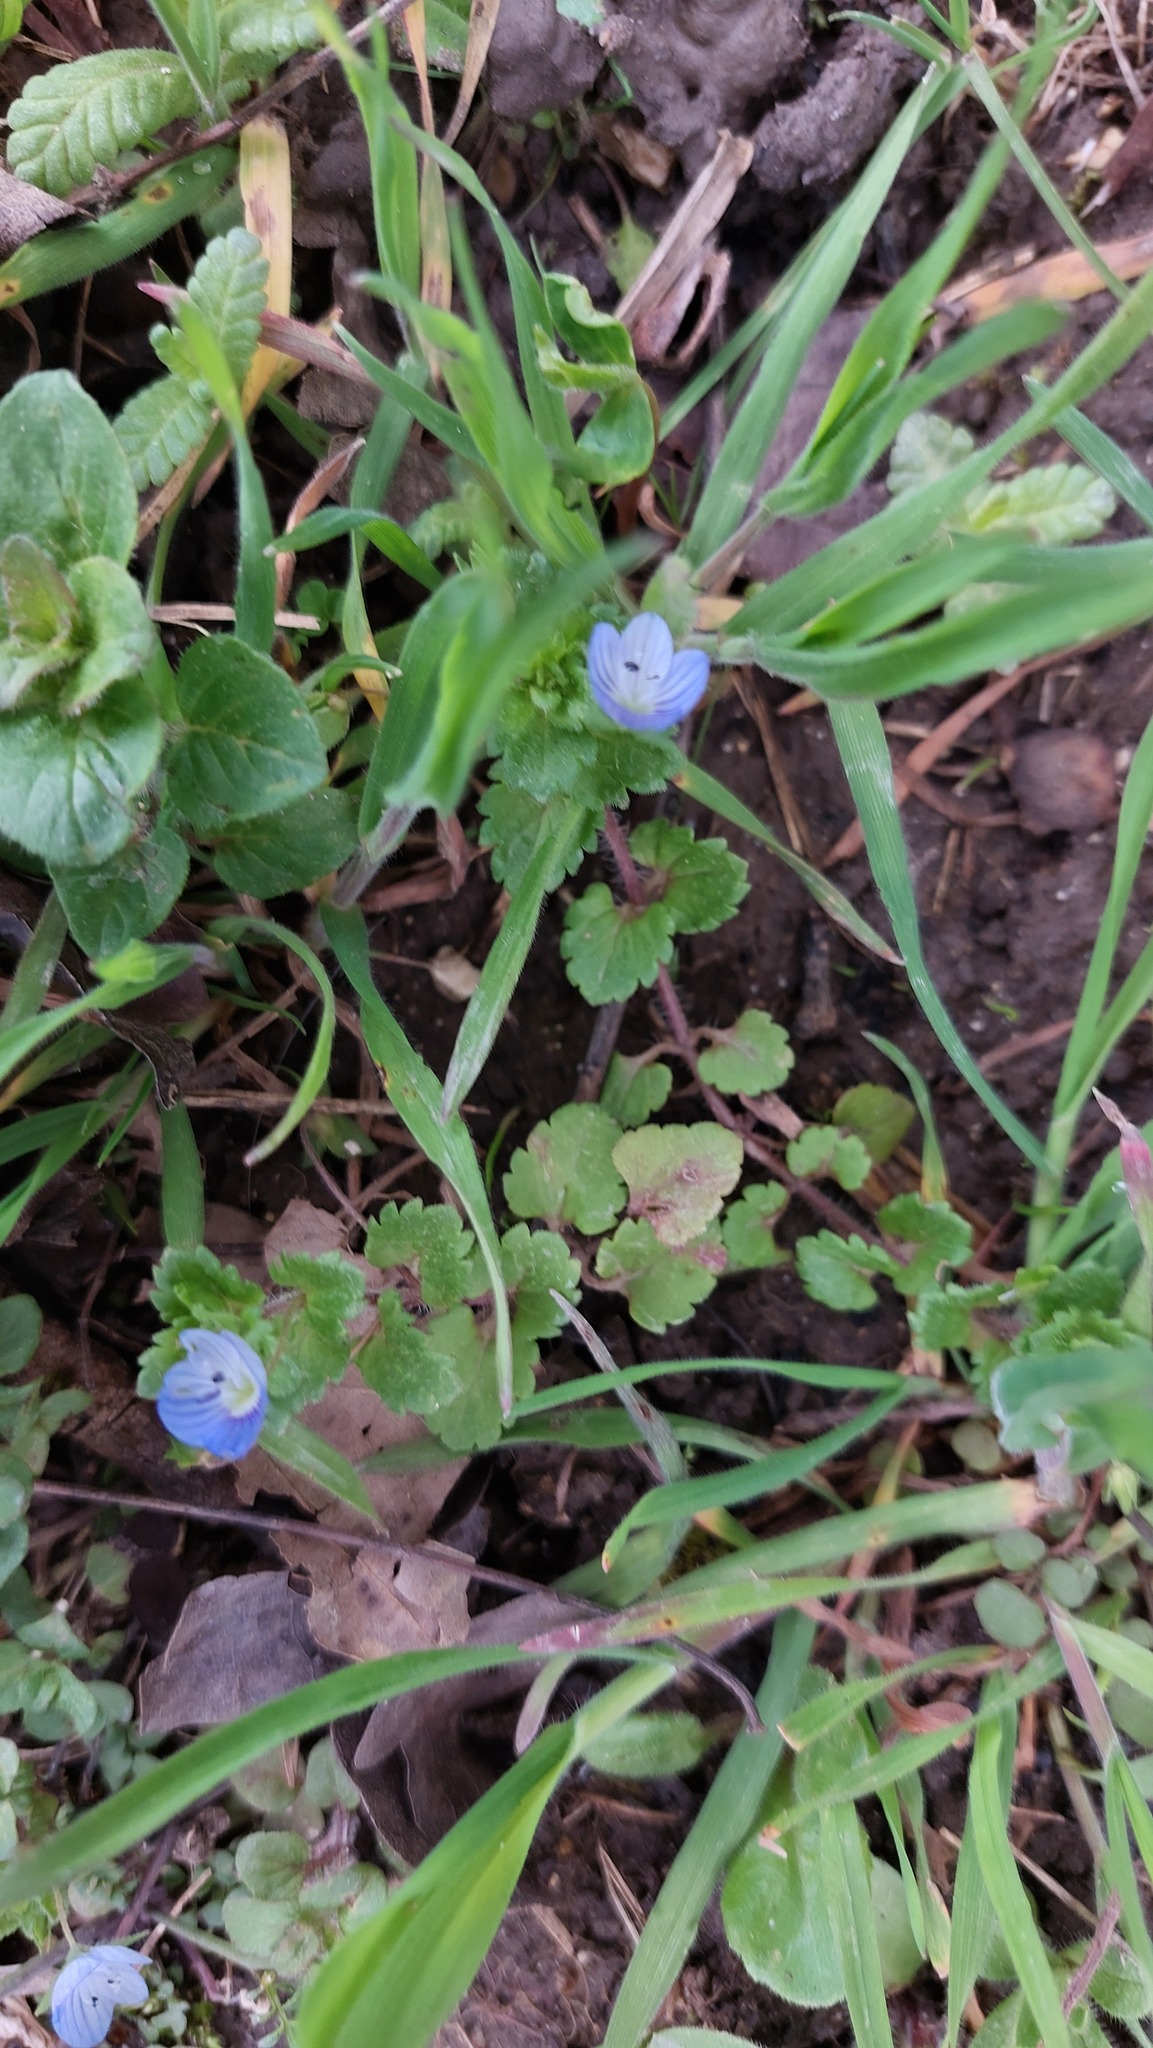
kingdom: Plantae
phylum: Tracheophyta
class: Magnoliopsida
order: Lamiales
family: Plantaginaceae
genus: Veronica
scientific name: Veronica persica
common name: Common field-speedwell
